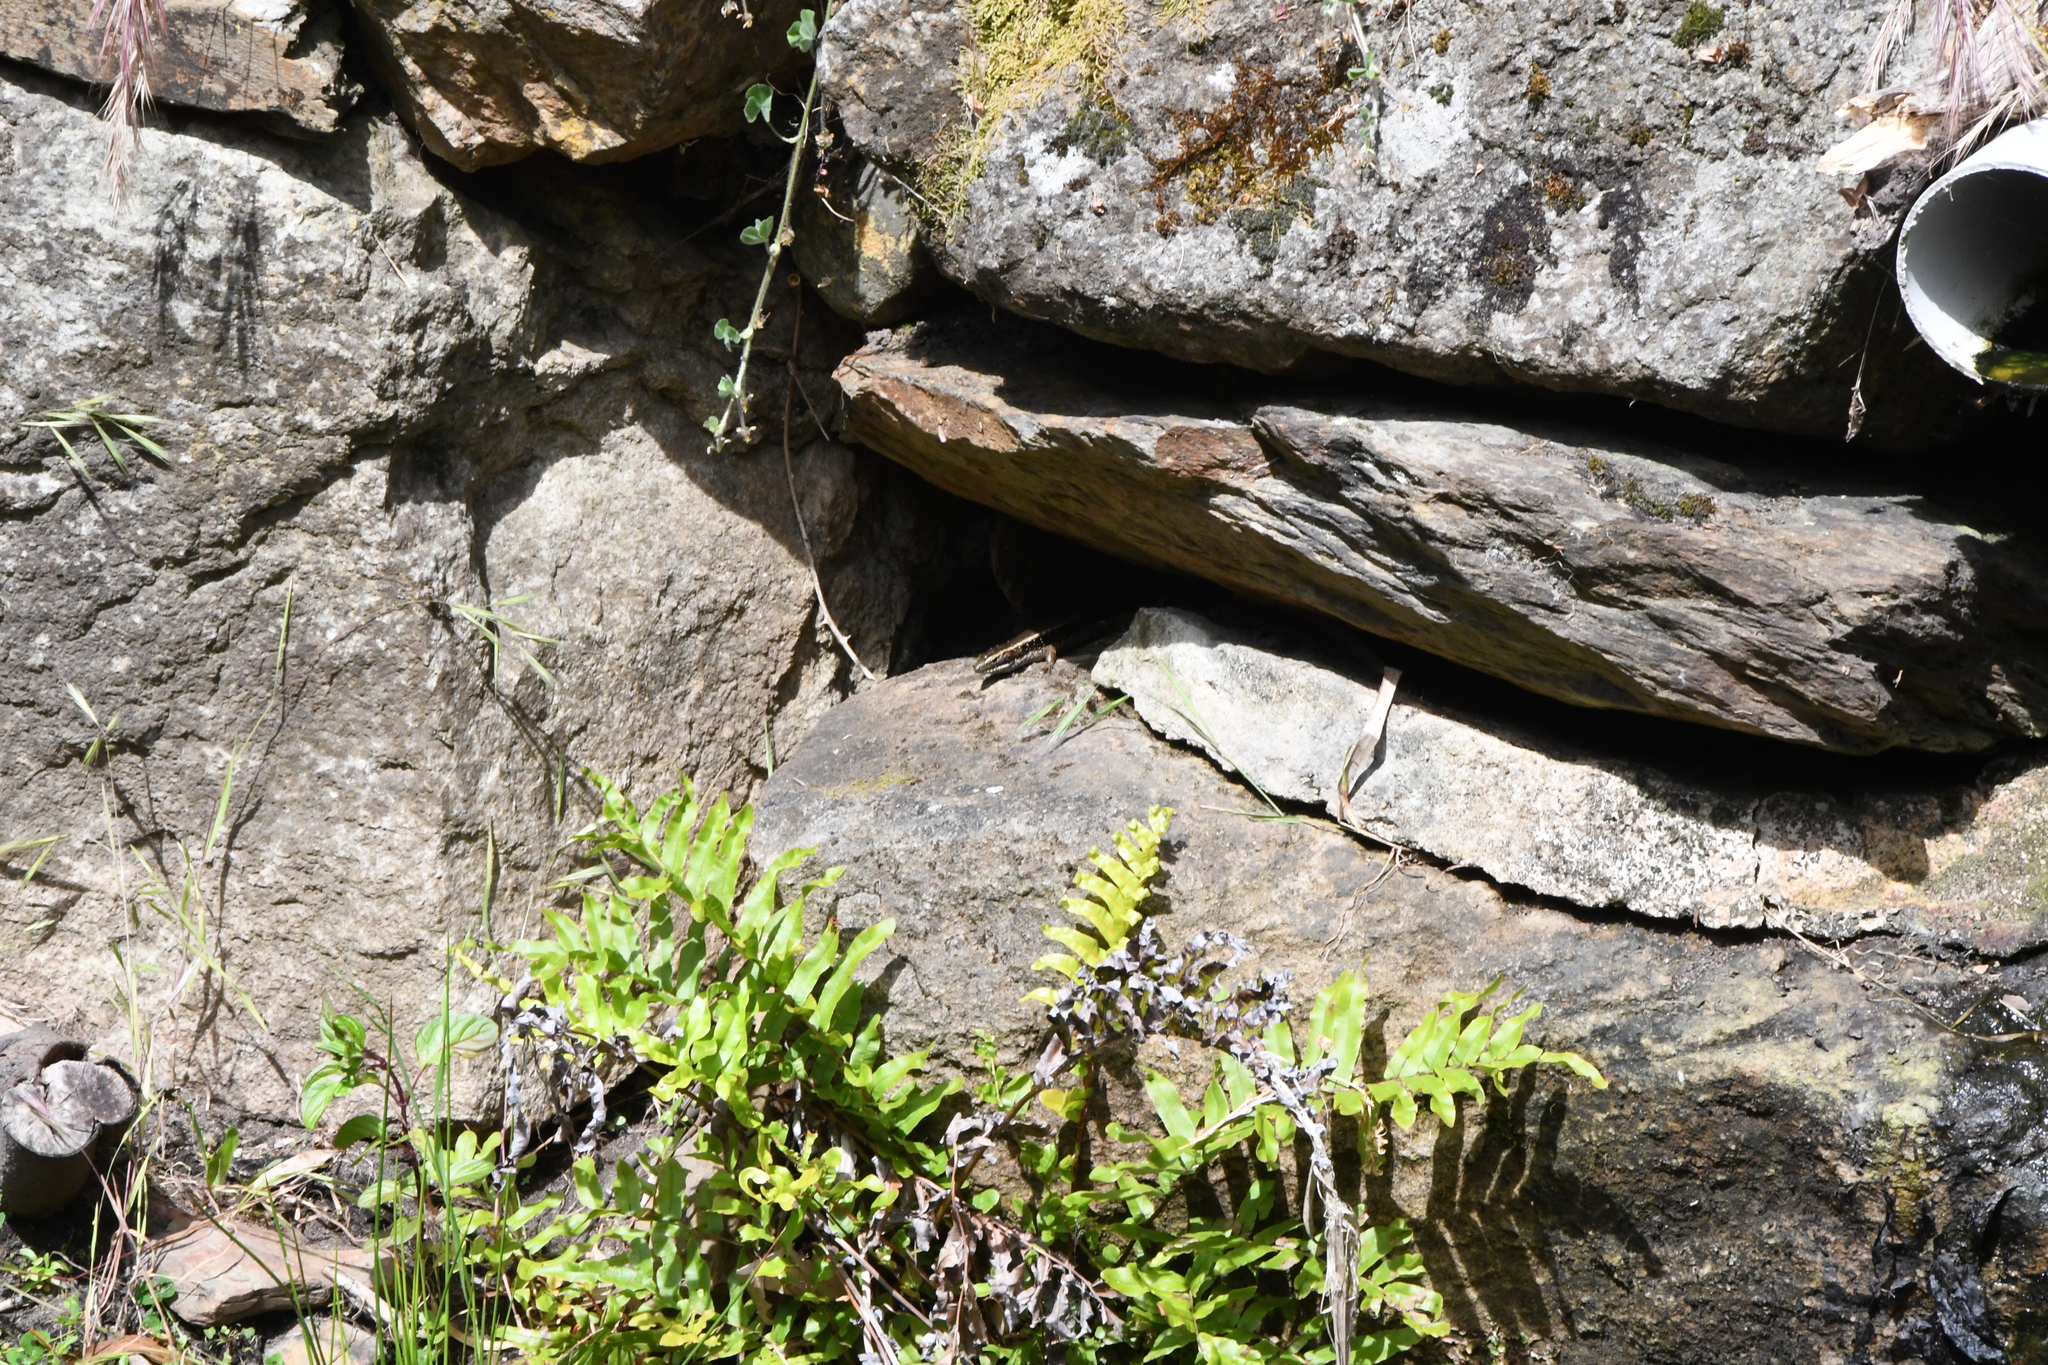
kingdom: Plantae
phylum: Tracheophyta
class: Polypodiopsida
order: Polypodiales
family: Blechnaceae
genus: Parablechnum
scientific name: Parablechnum minus
